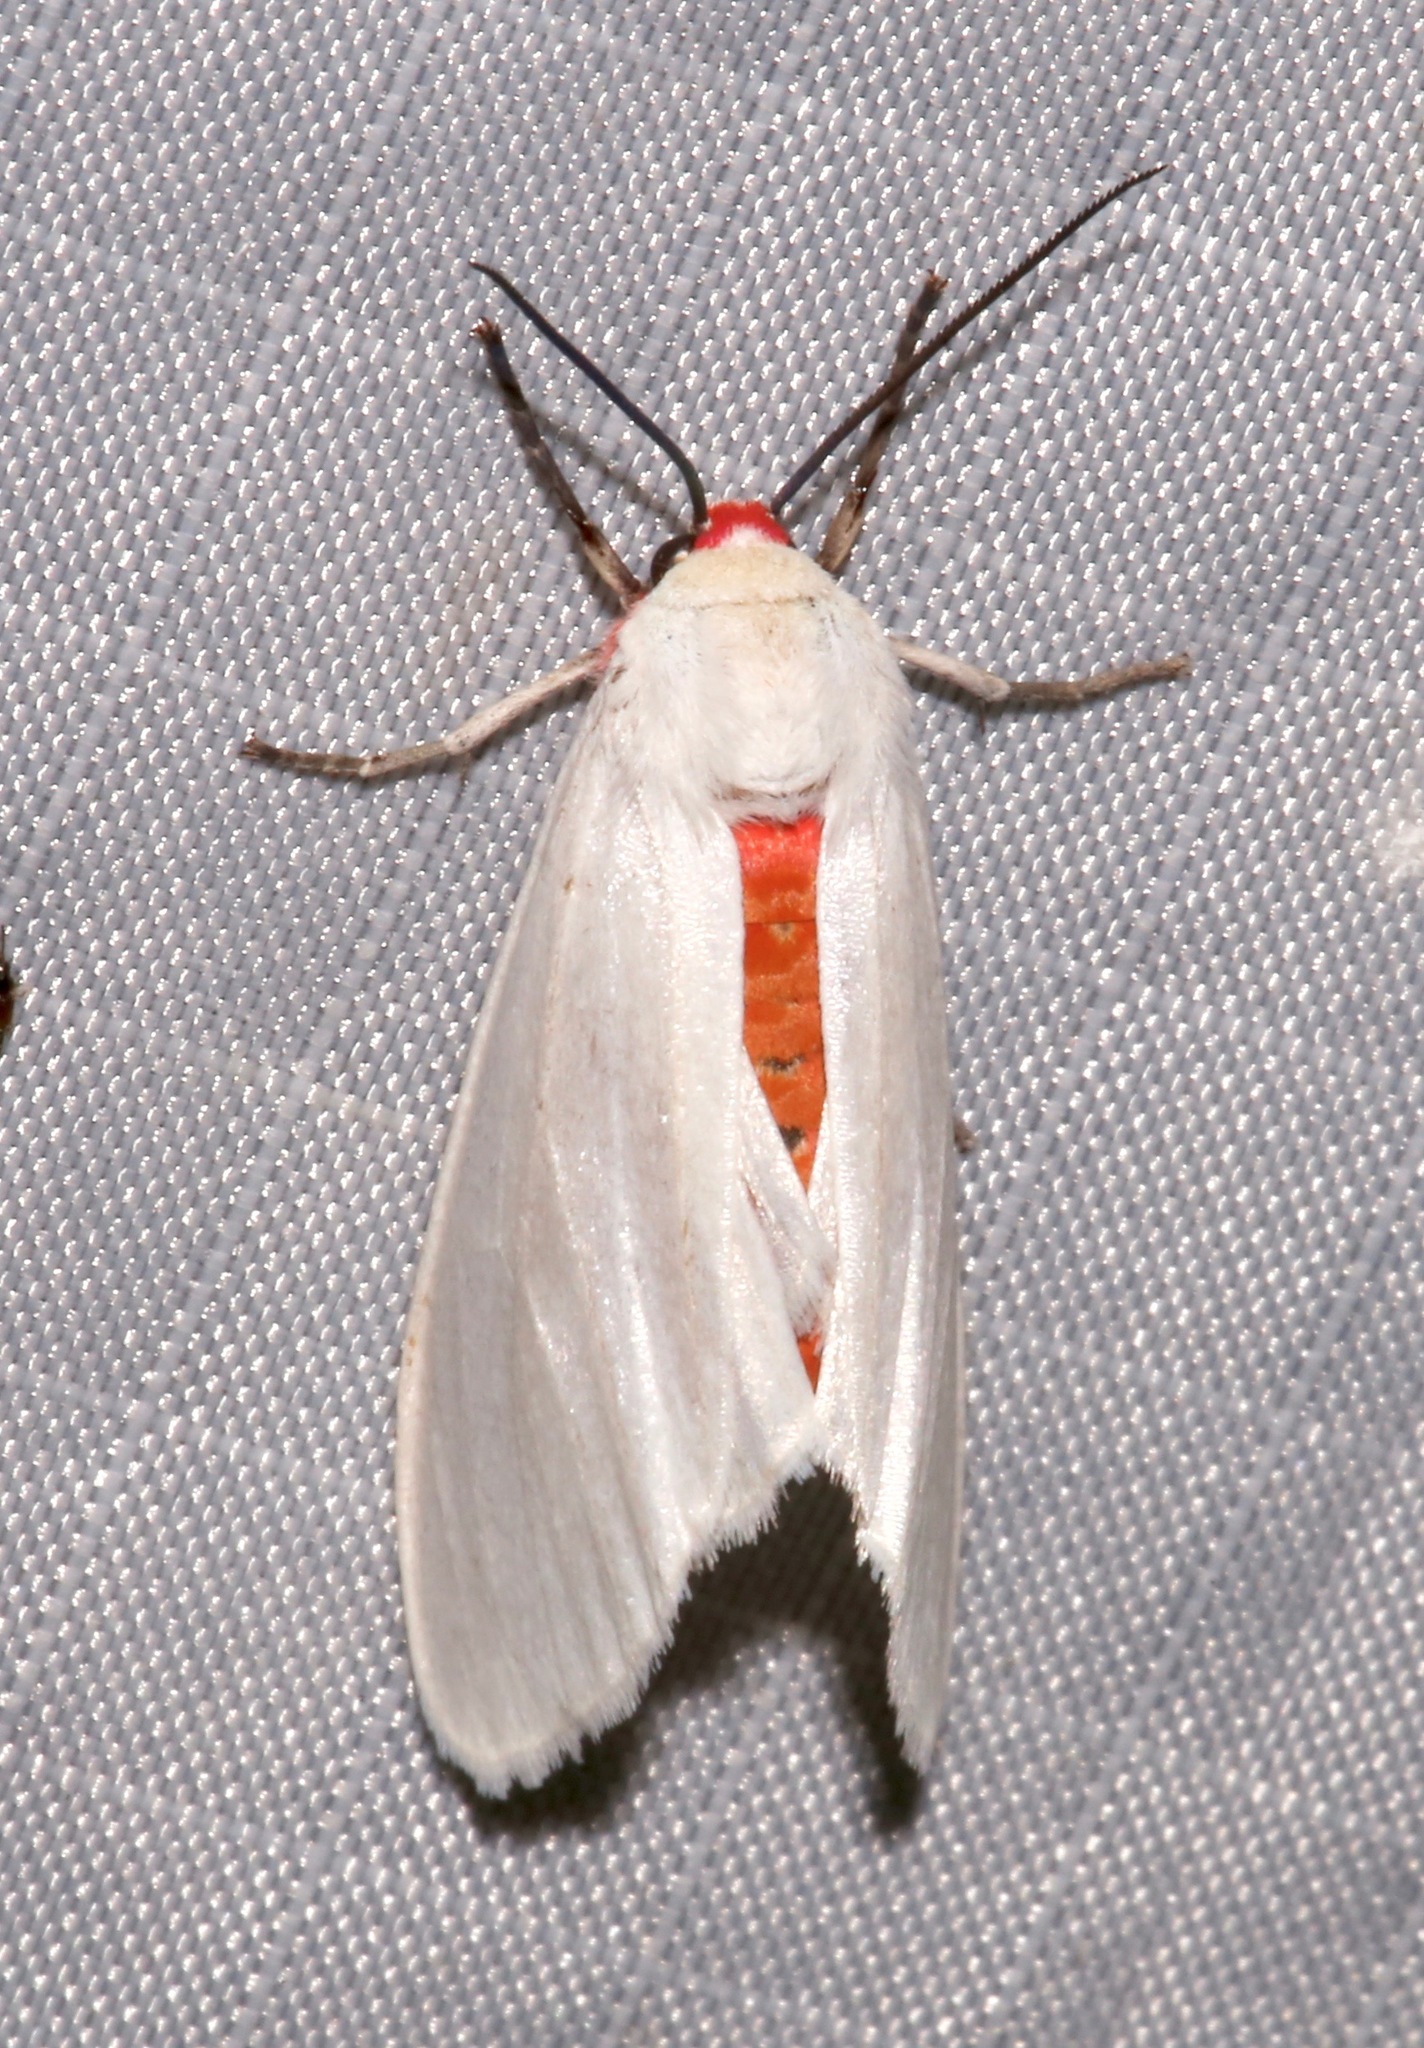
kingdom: Animalia
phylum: Arthropoda
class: Insecta
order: Lepidoptera
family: Erebidae
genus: Pygarctia
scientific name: Pygarctia roseicapitis
